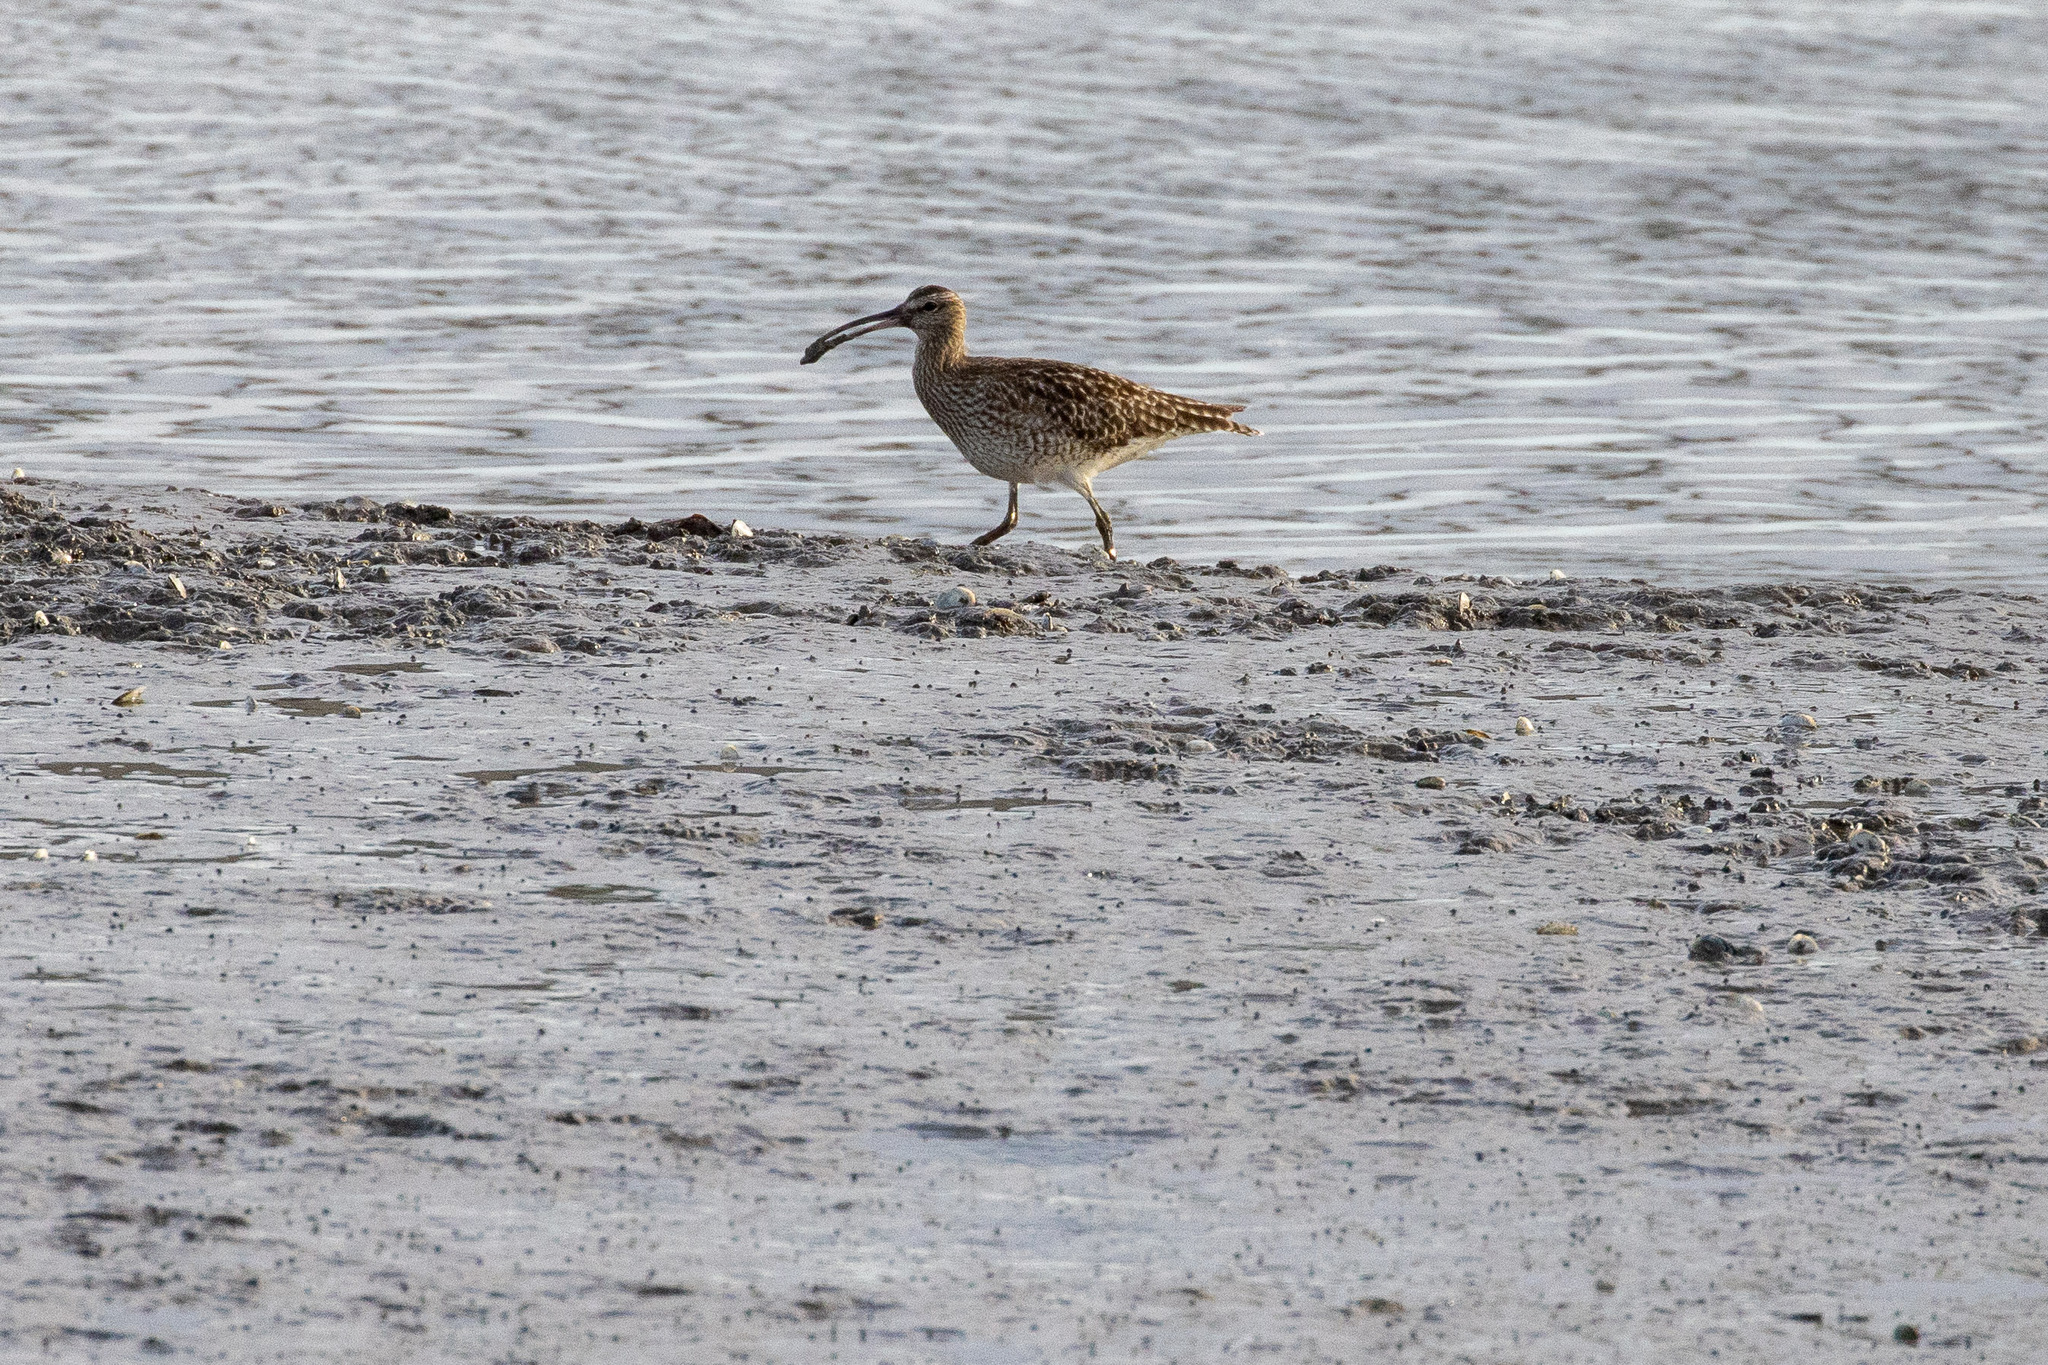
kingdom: Animalia
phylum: Chordata
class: Aves
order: Charadriiformes
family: Scolopacidae
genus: Numenius
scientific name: Numenius phaeopus
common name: Whimbrel
